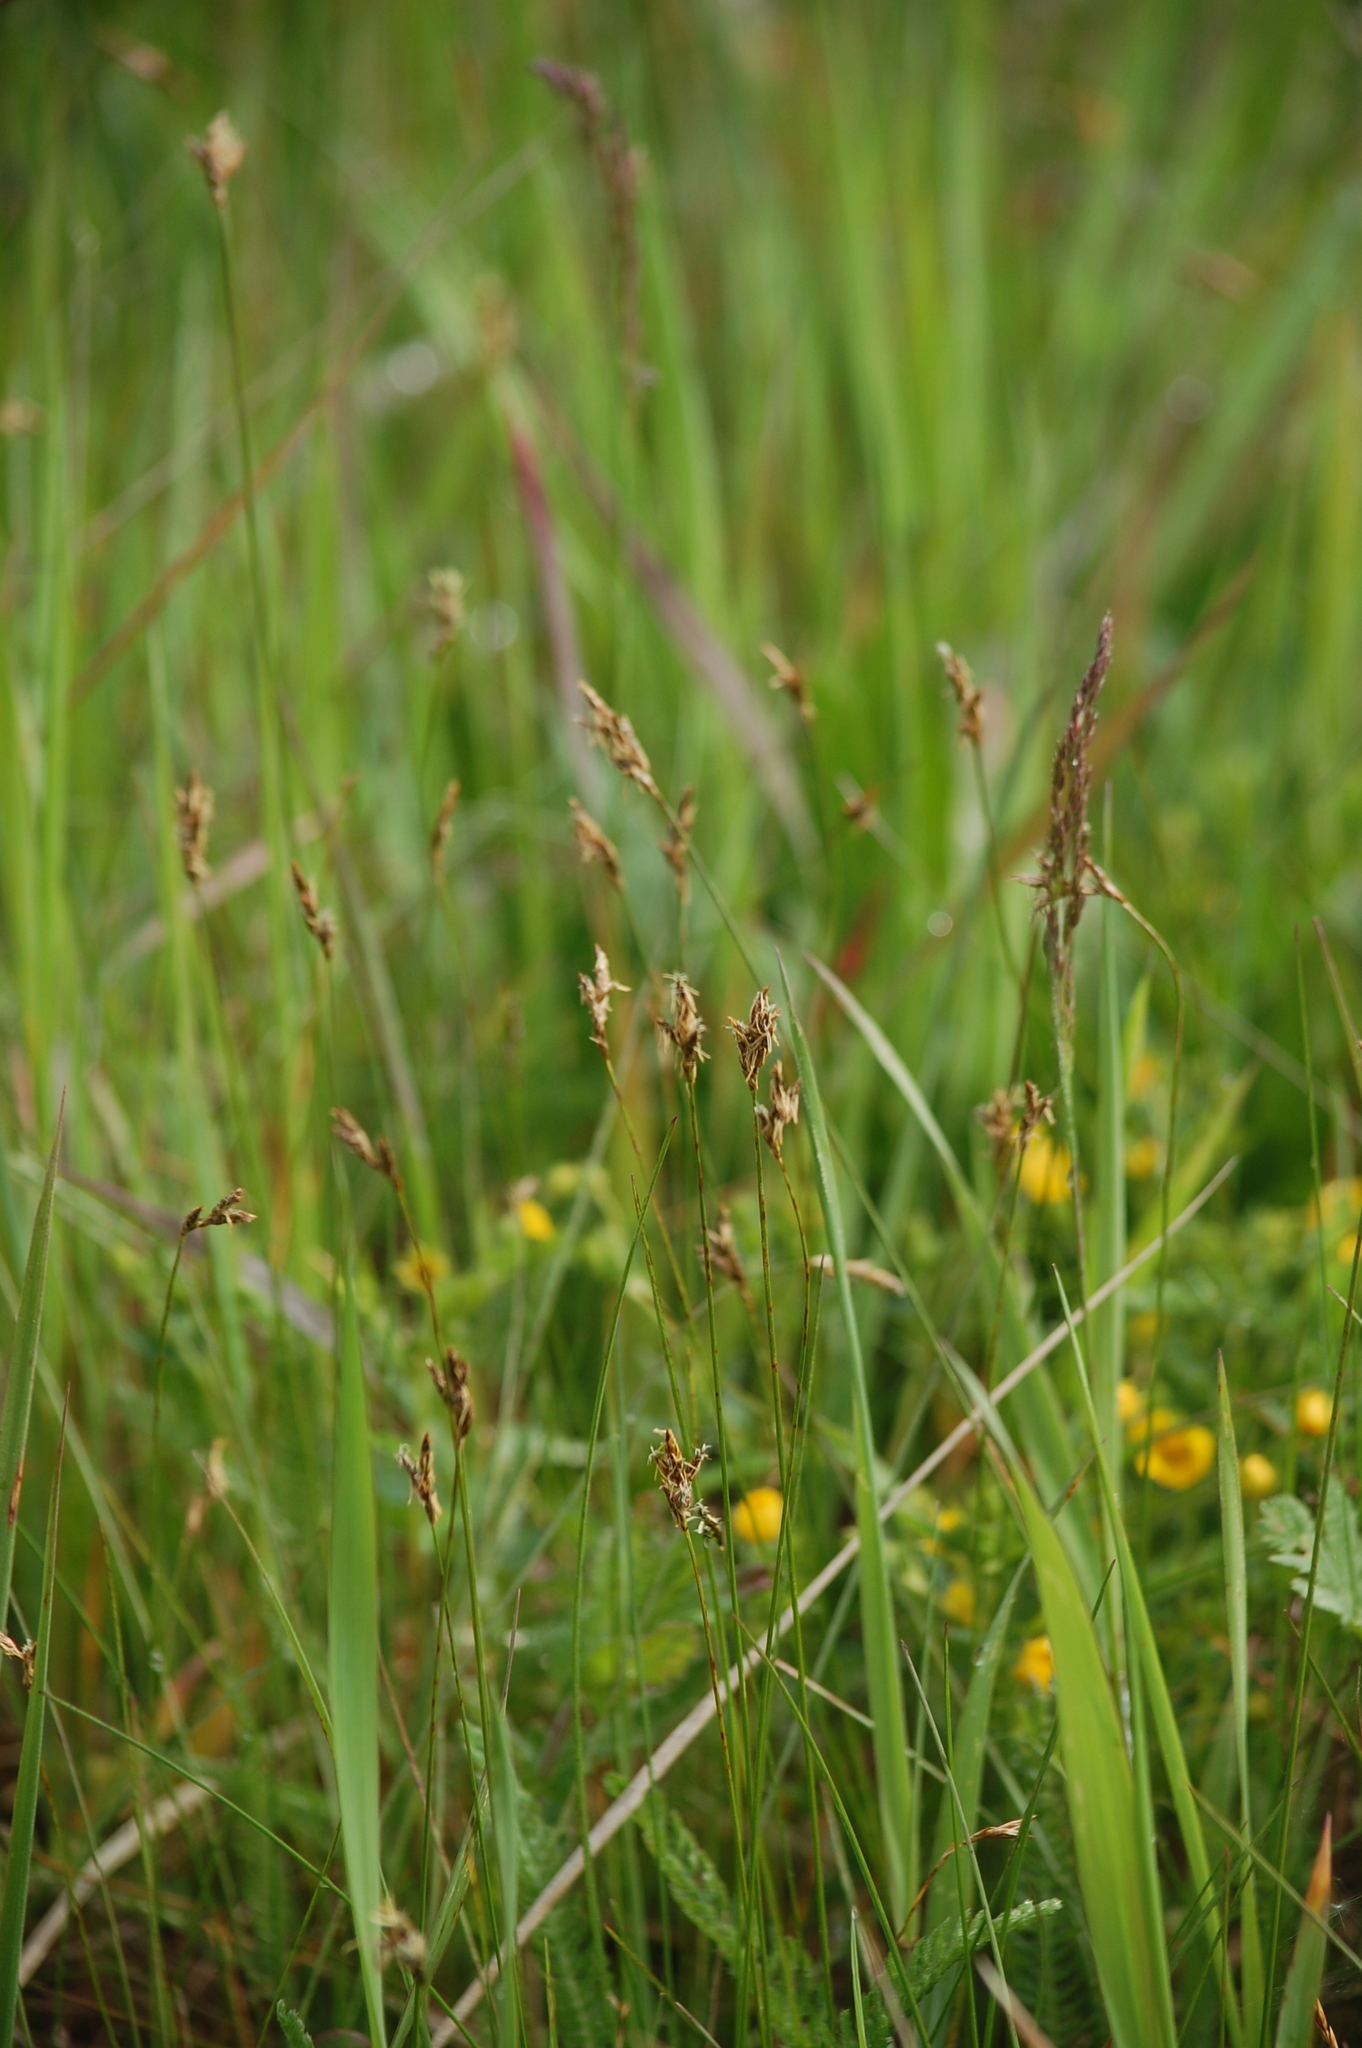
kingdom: Plantae
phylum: Tracheophyta
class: Liliopsida
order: Poales
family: Cyperaceae
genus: Carex
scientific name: Carex praecox
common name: Early sedge
